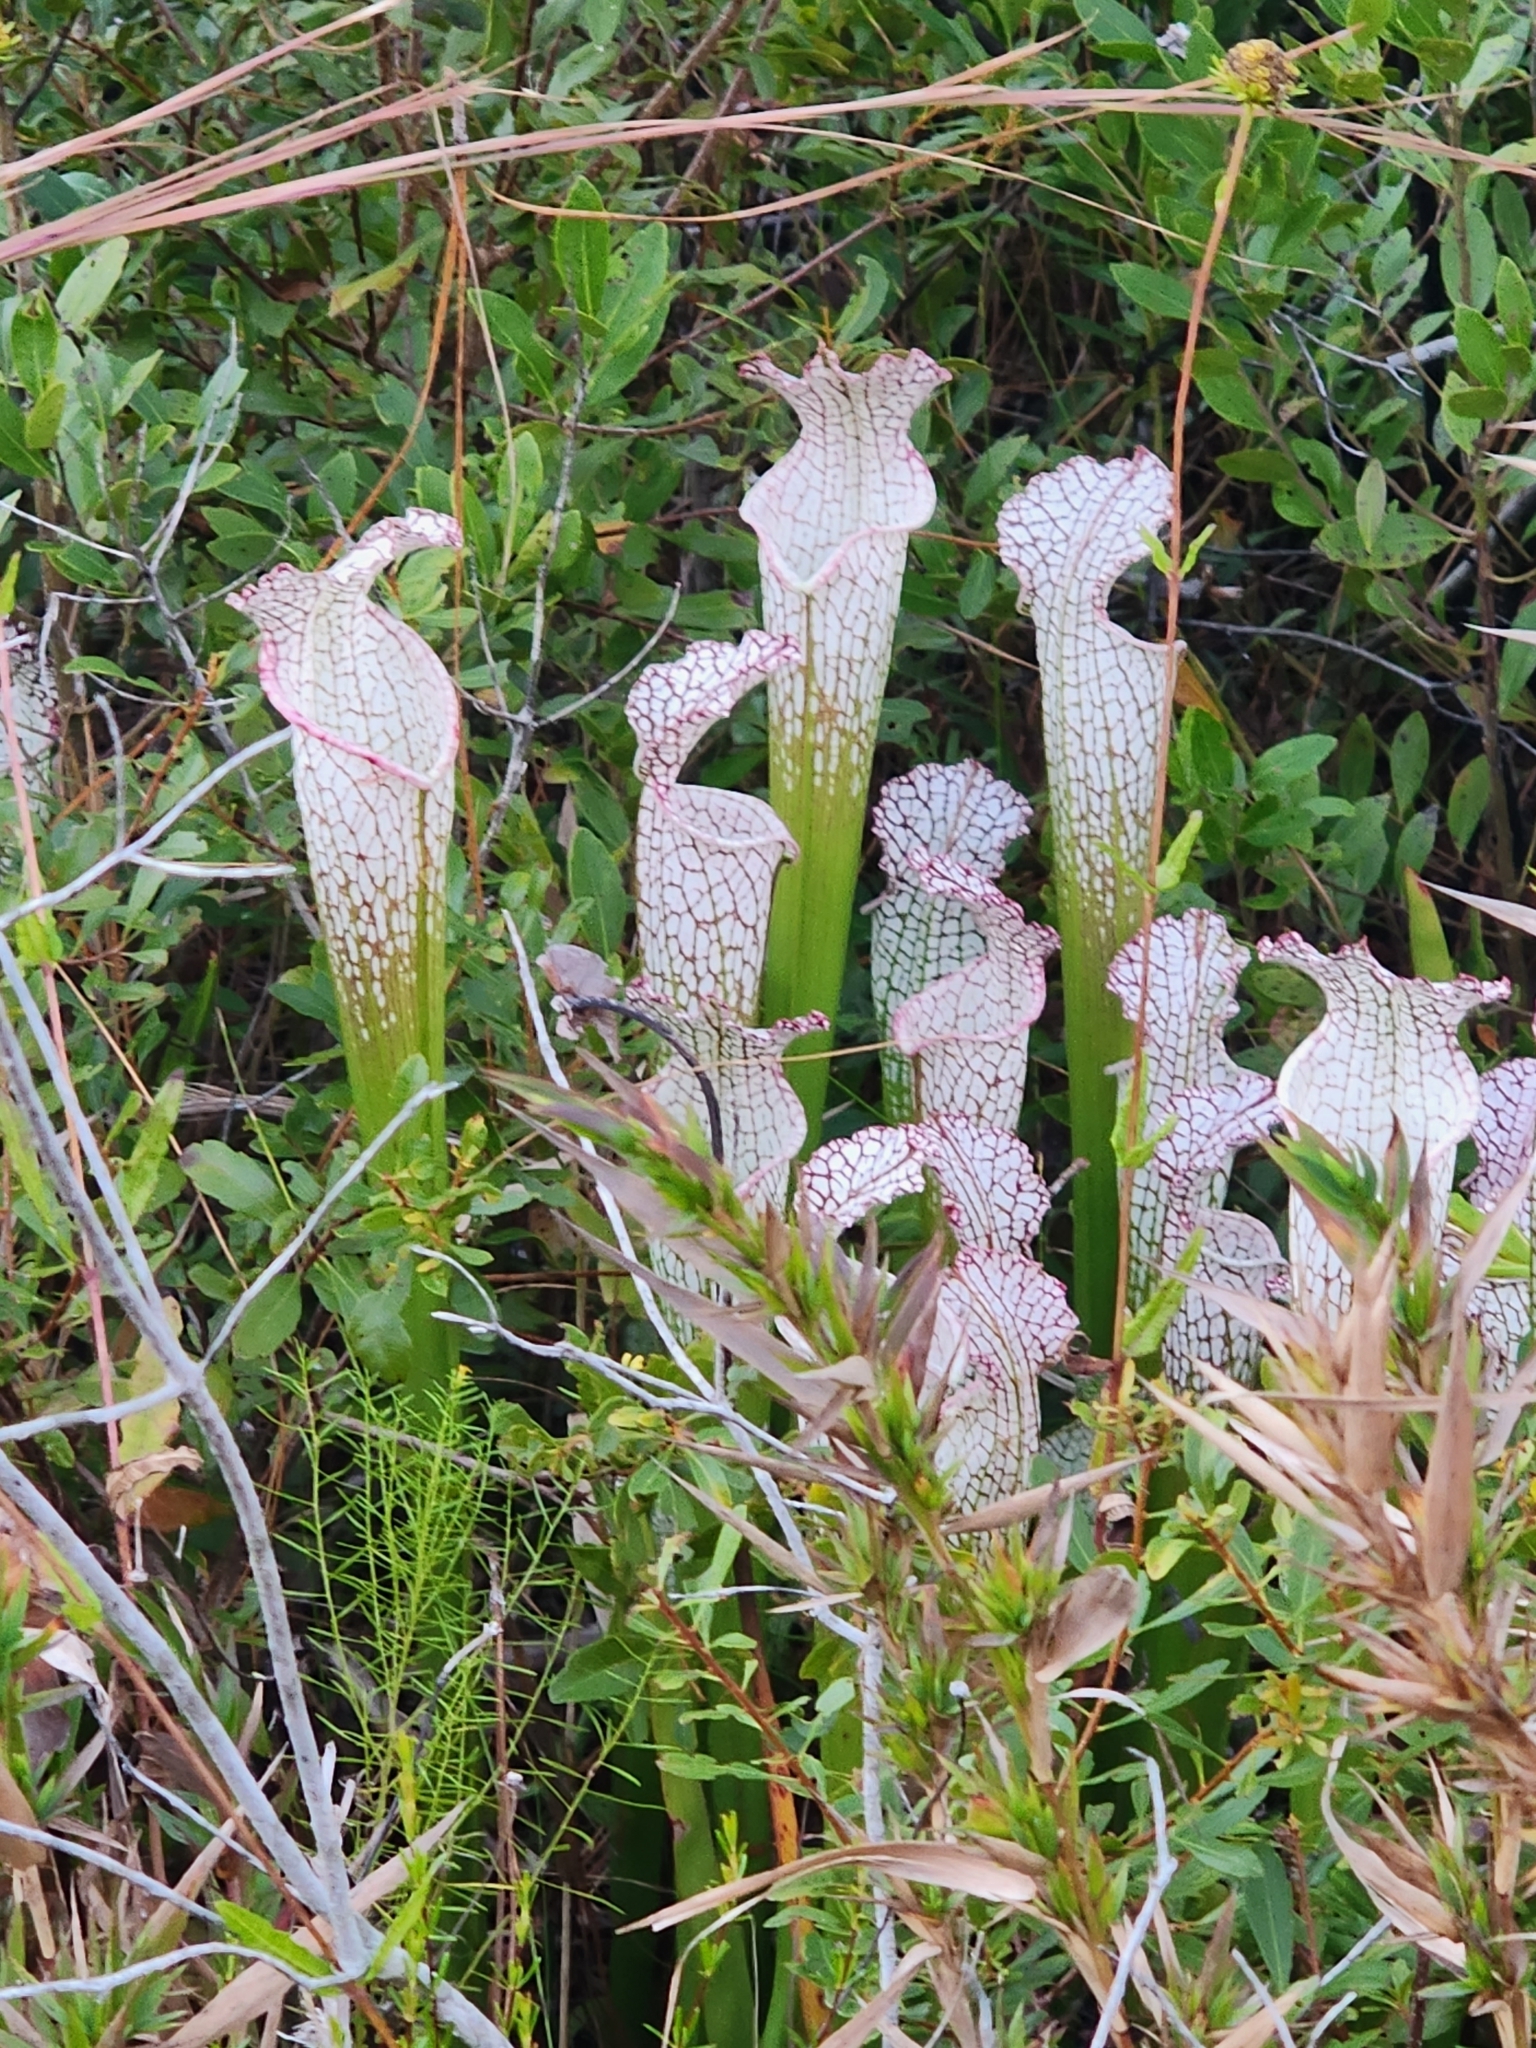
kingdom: Plantae
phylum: Tracheophyta
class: Magnoliopsida
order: Ericales
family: Sarraceniaceae
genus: Sarracenia
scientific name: Sarracenia leucophylla
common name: Purple trumpetleaf
